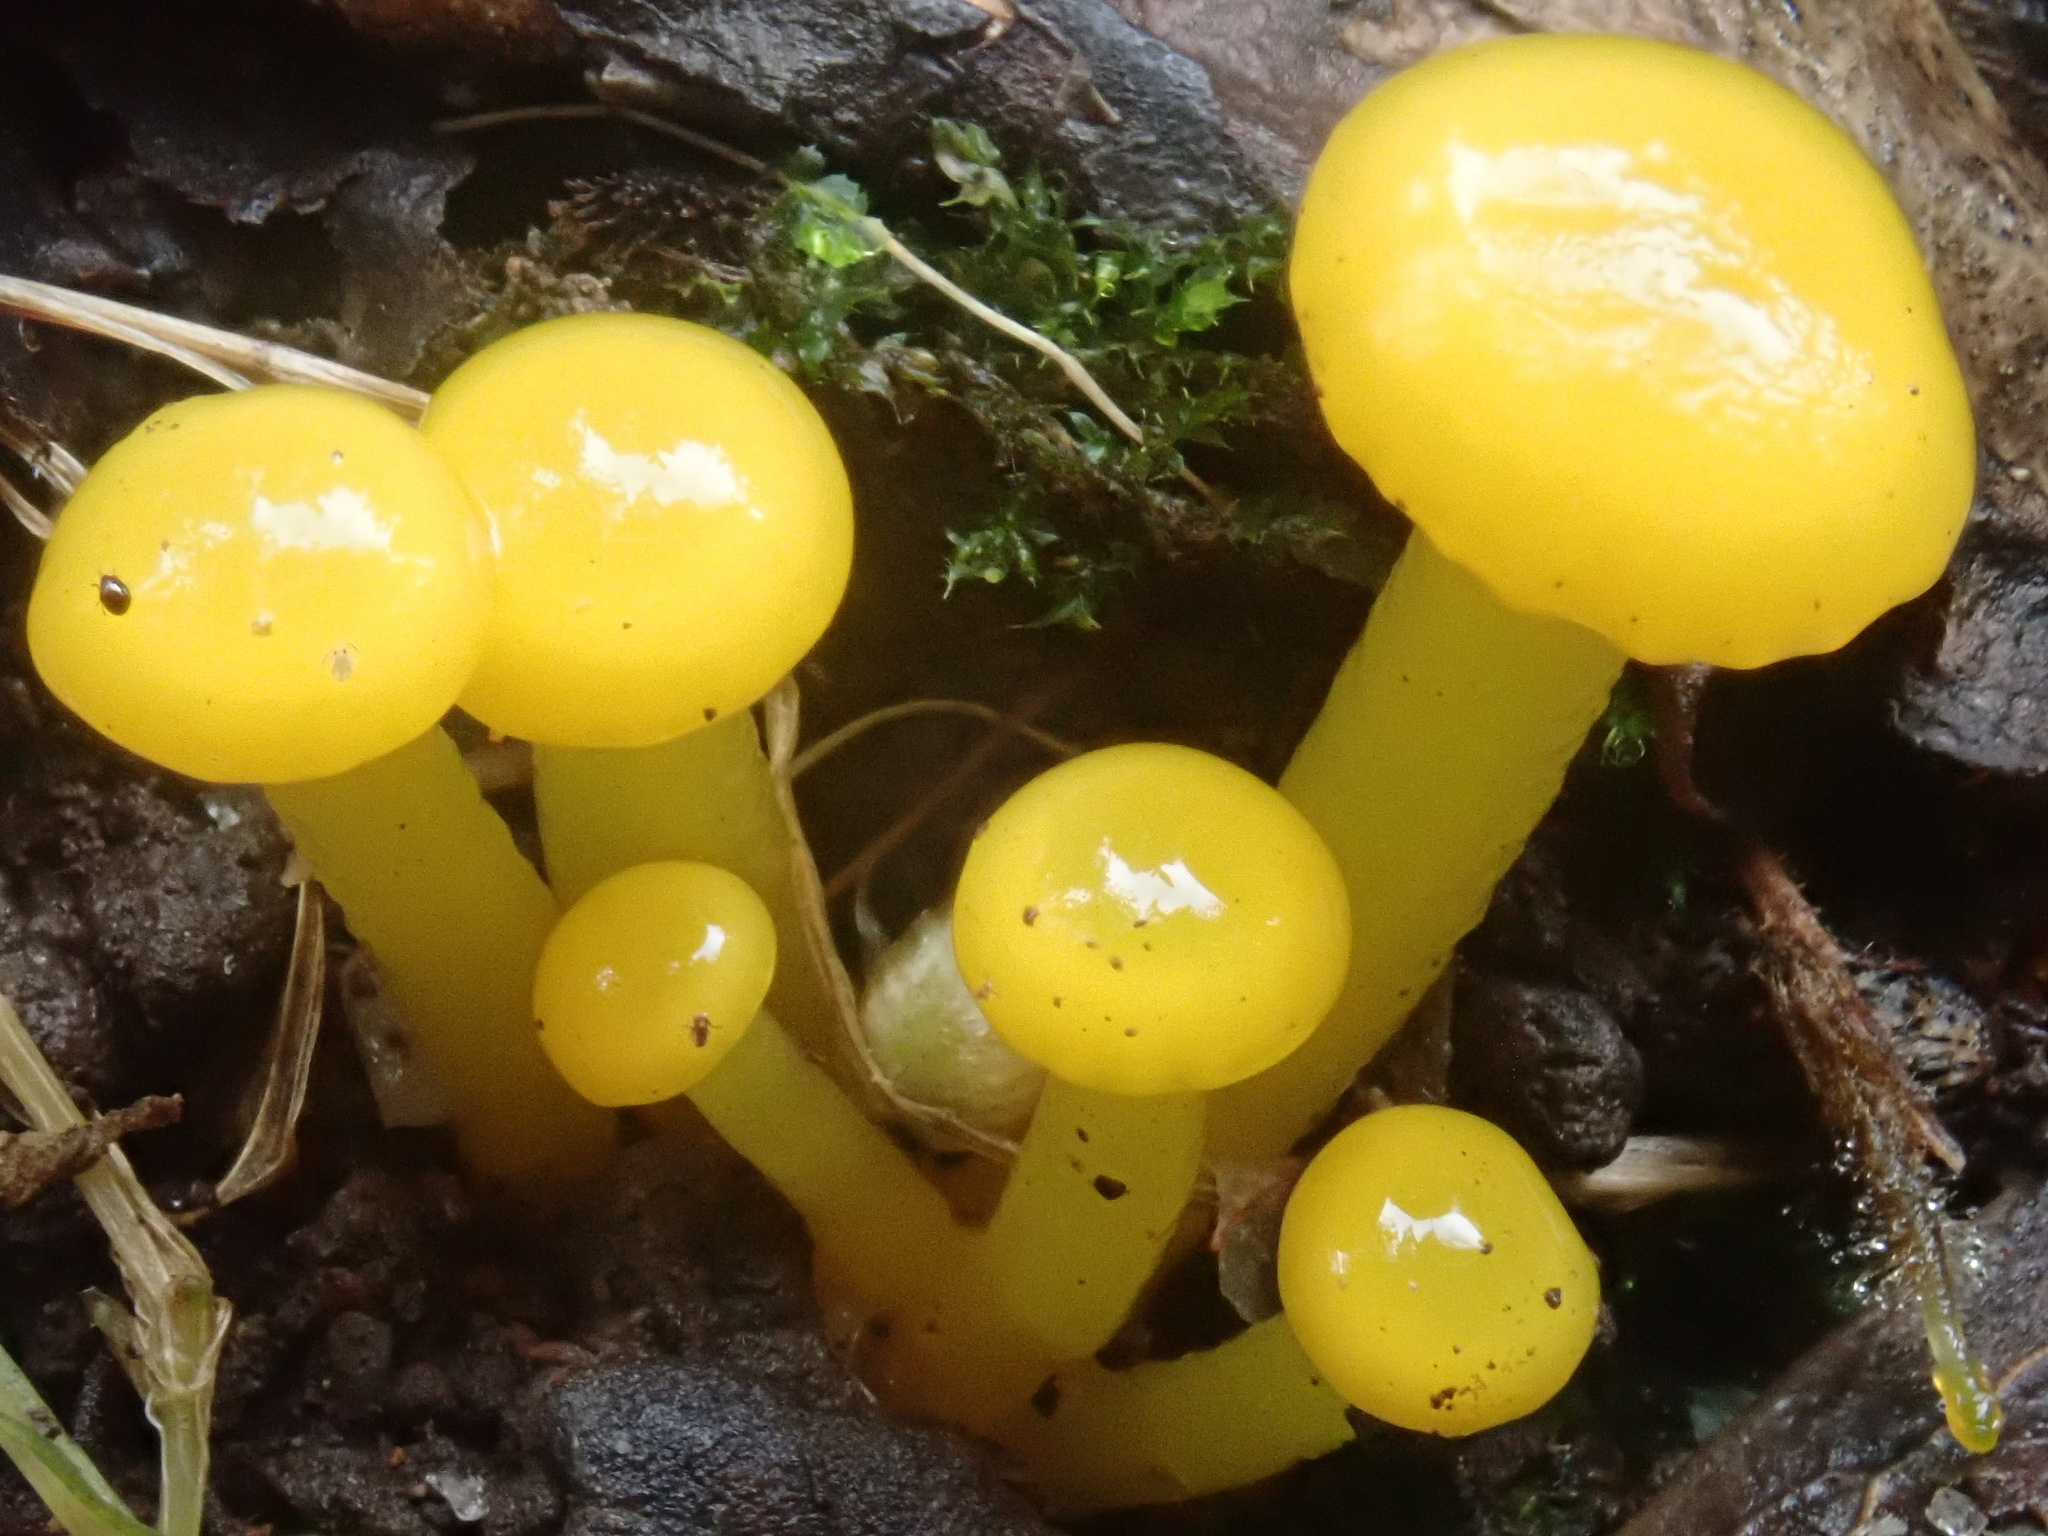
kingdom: Fungi
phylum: Basidiomycota
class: Agaricomycetes
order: Agaricales
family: Hygrophoraceae
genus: Gloioxanthomyces
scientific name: Gloioxanthomyces
